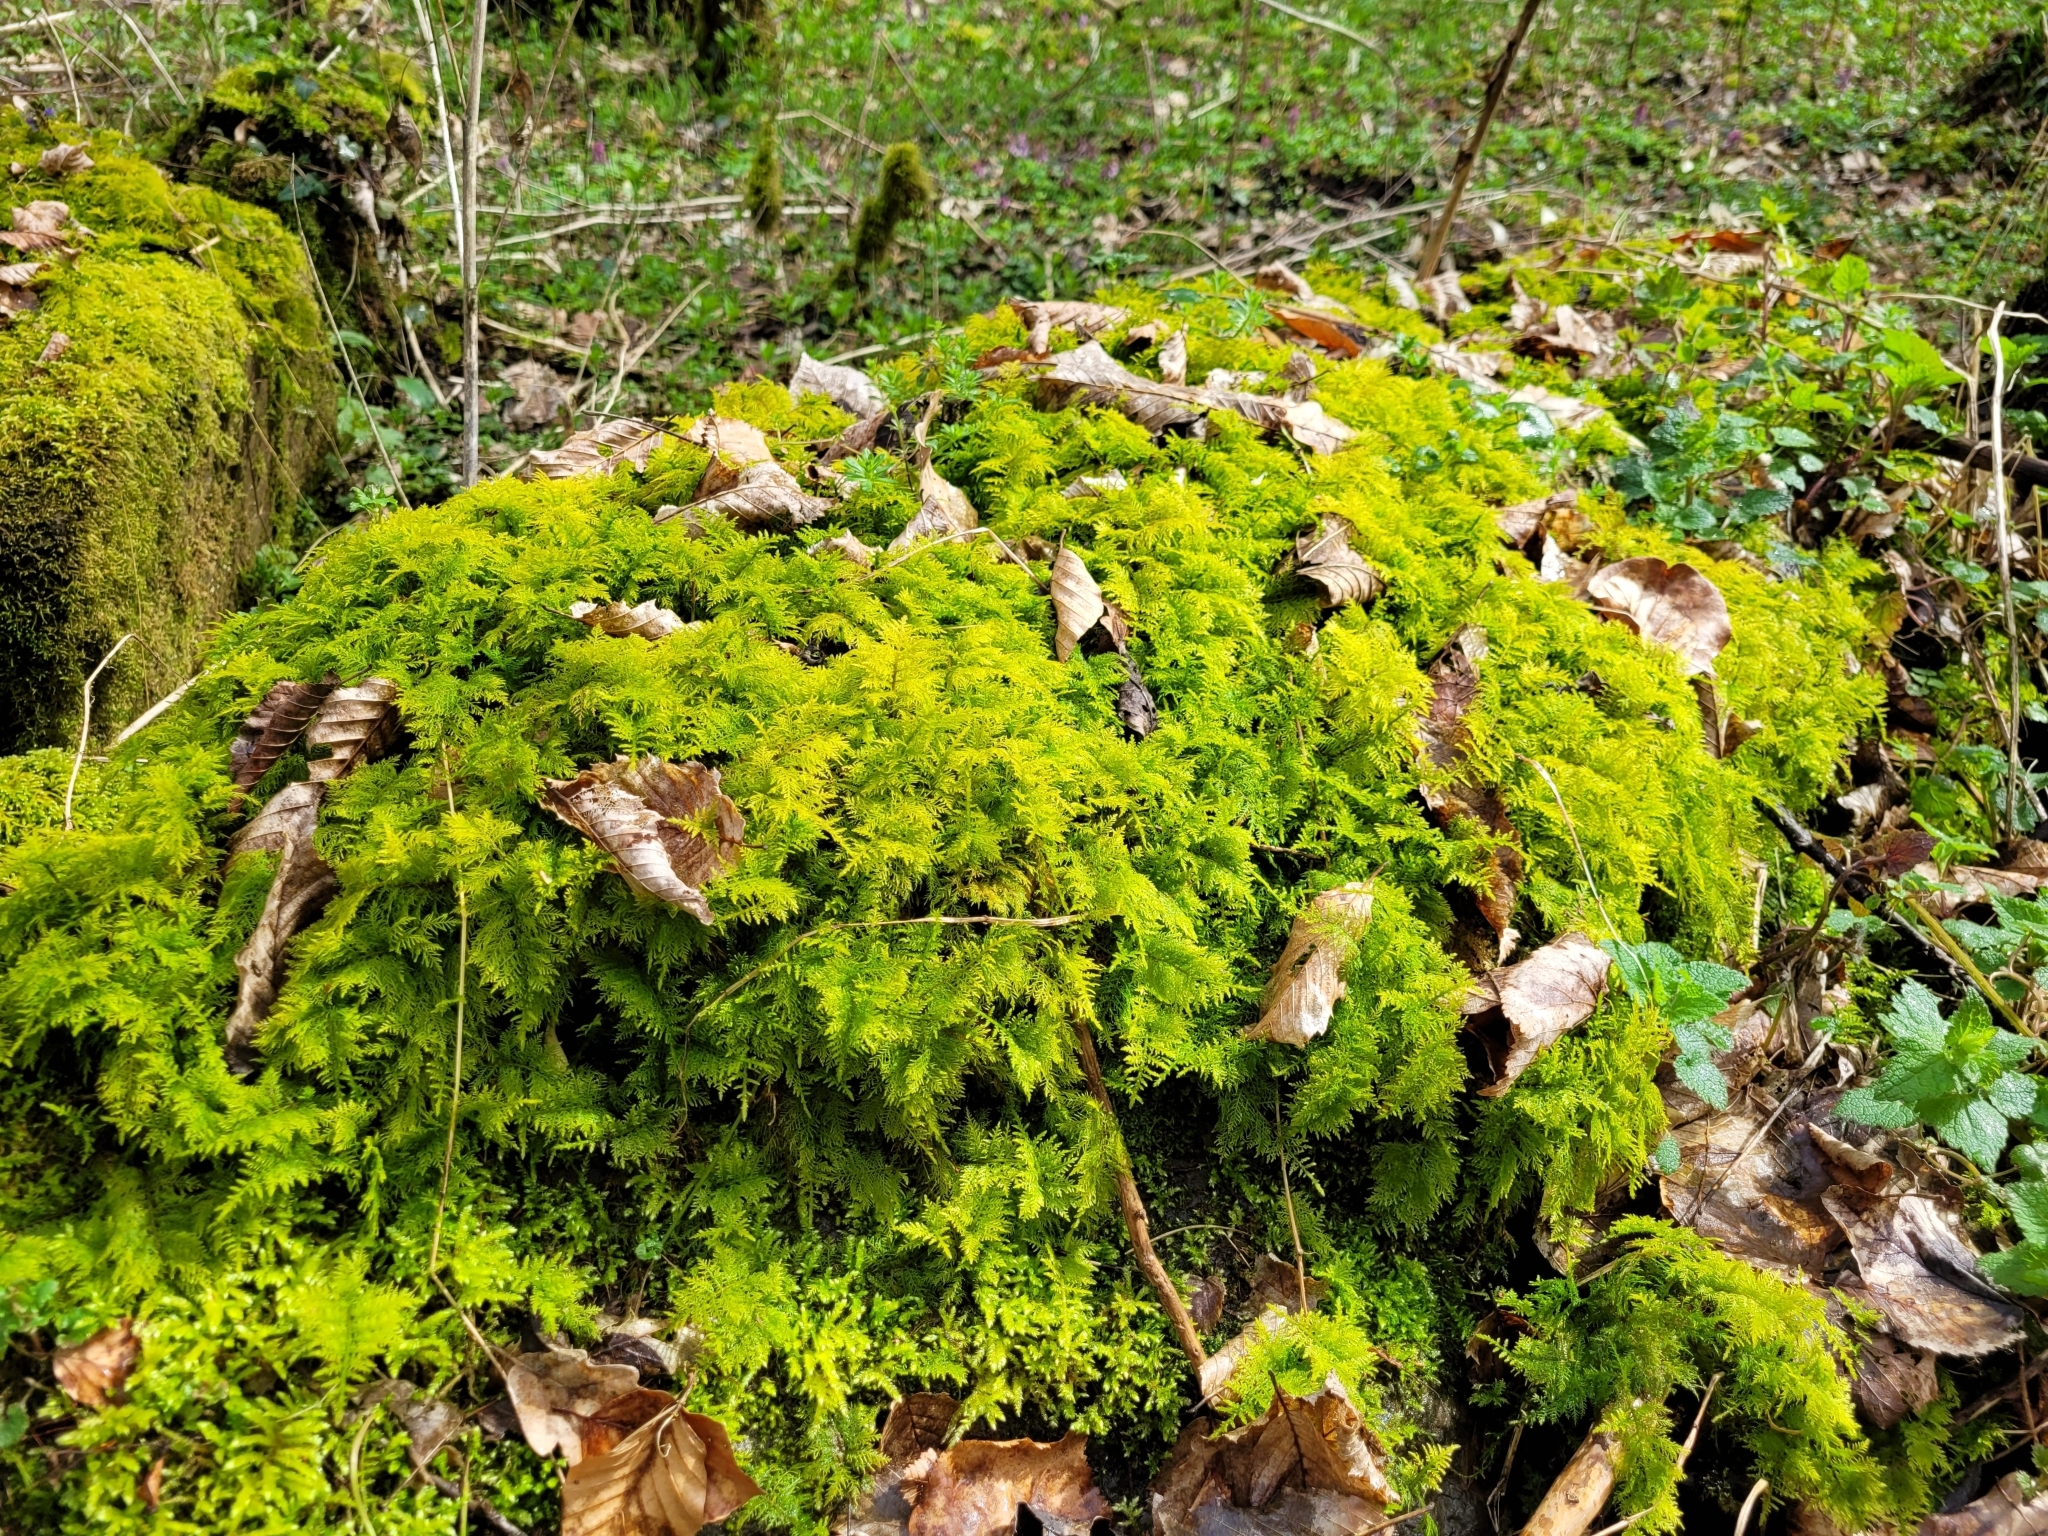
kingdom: Plantae
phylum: Bryophyta
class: Bryopsida
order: Hypnales
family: Thuidiaceae
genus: Thuidium
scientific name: Thuidium tamariscinum
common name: Common tamarisk-moss
